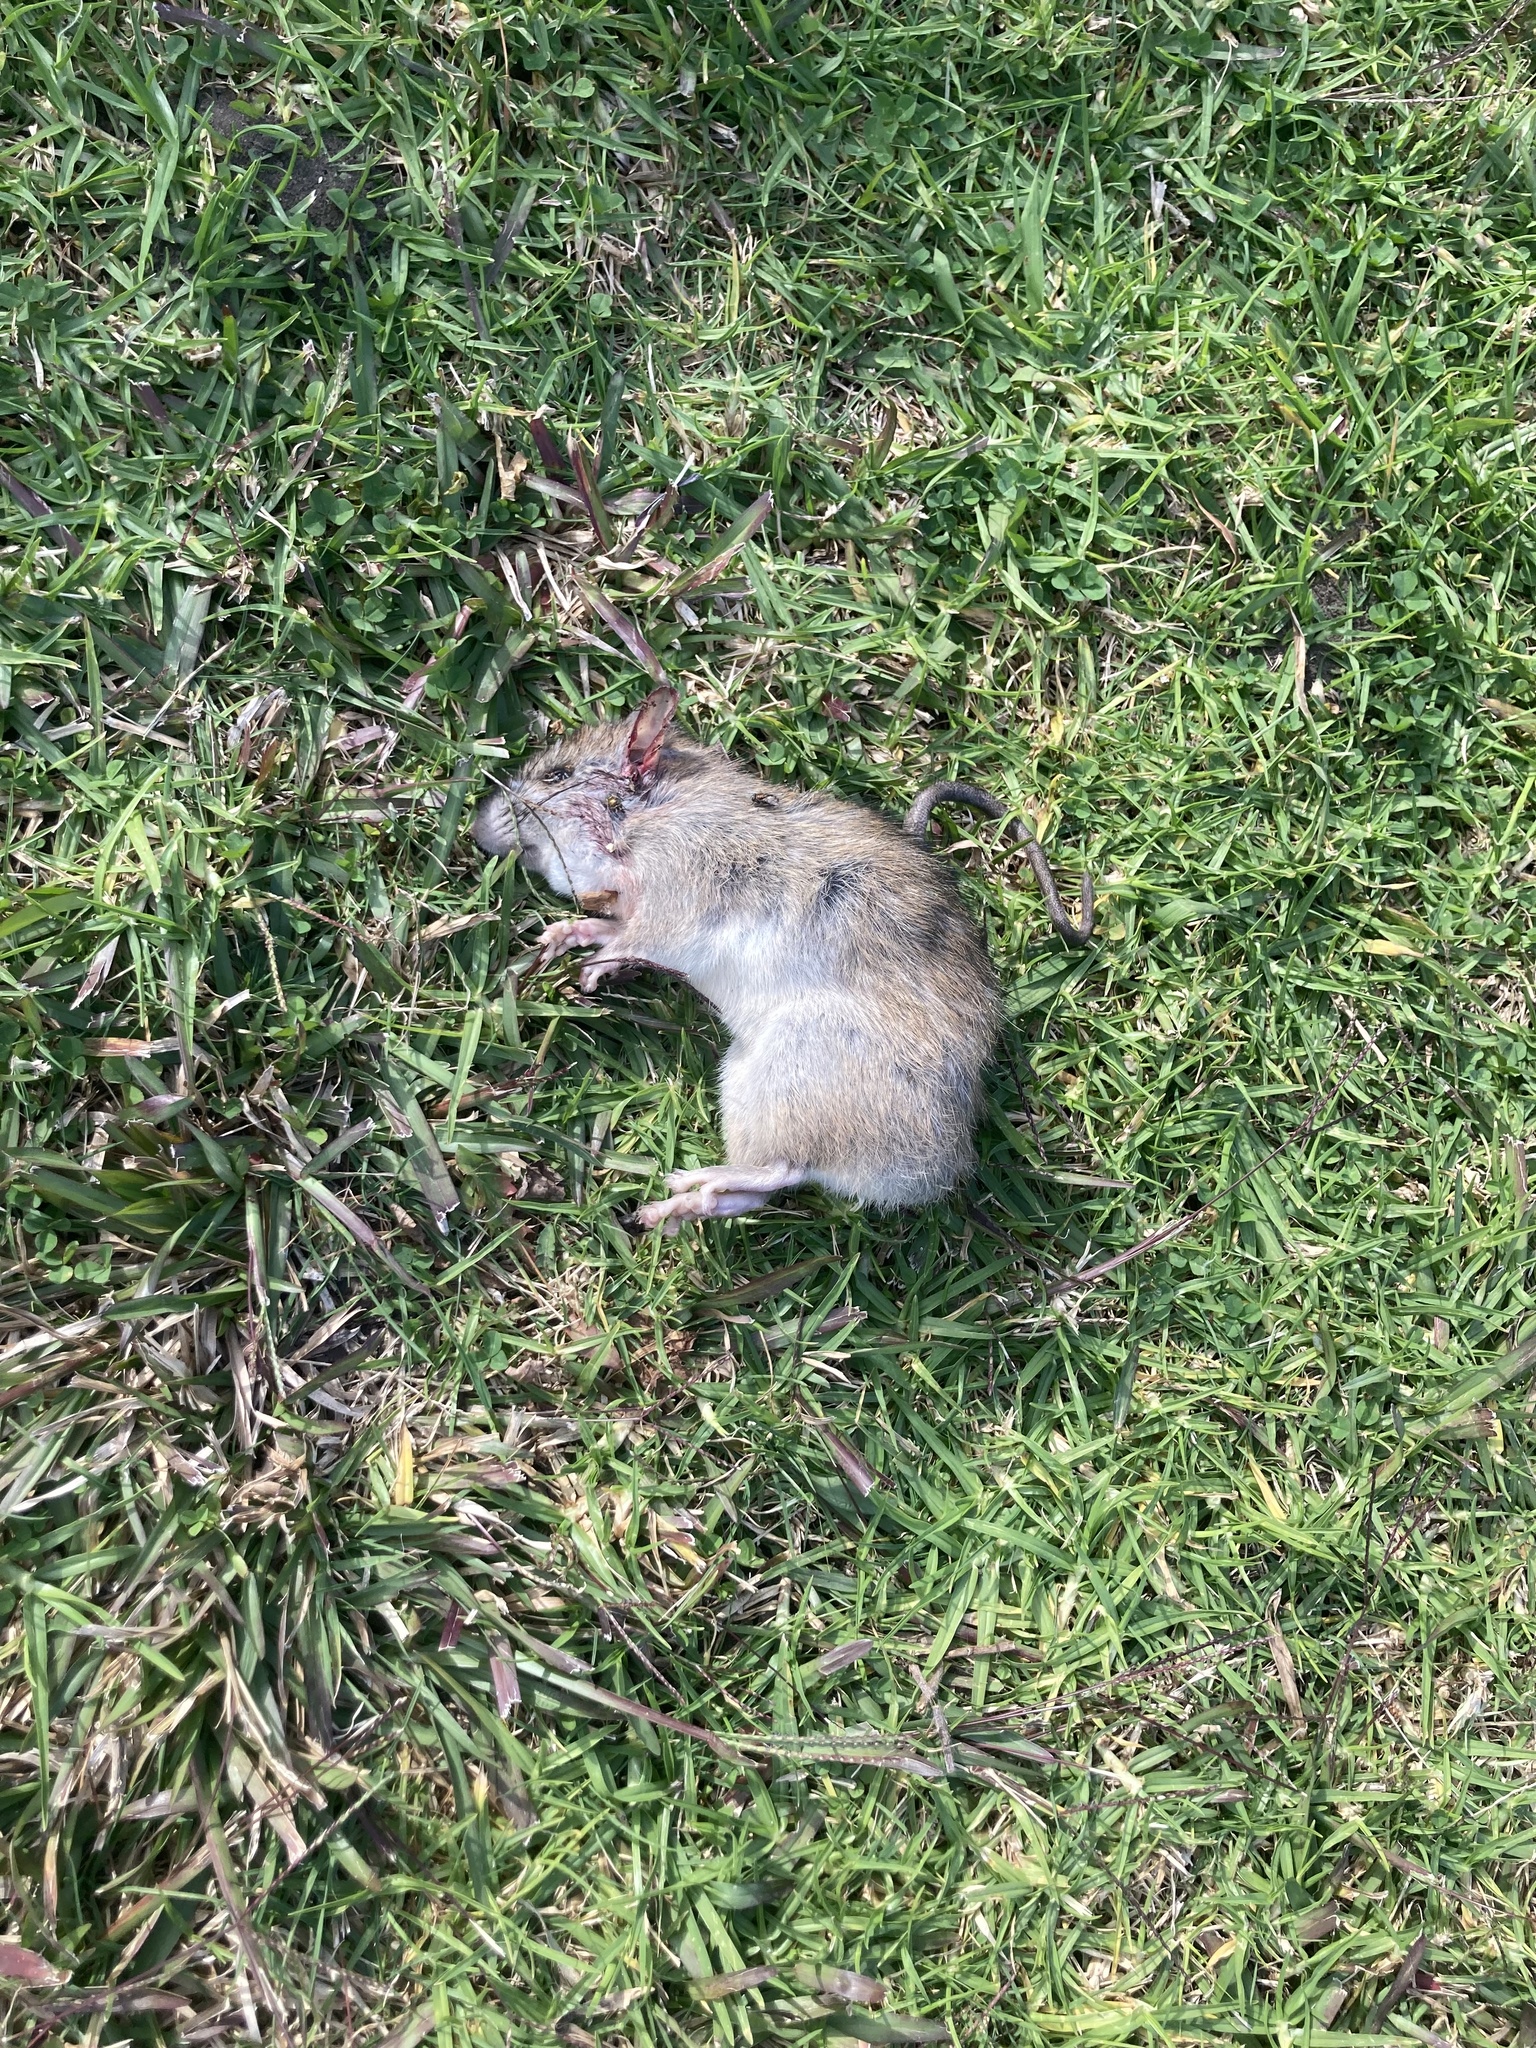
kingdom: Animalia
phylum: Chordata
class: Mammalia
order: Rodentia
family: Muridae
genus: Rattus
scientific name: Rattus rattus
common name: Black rat
